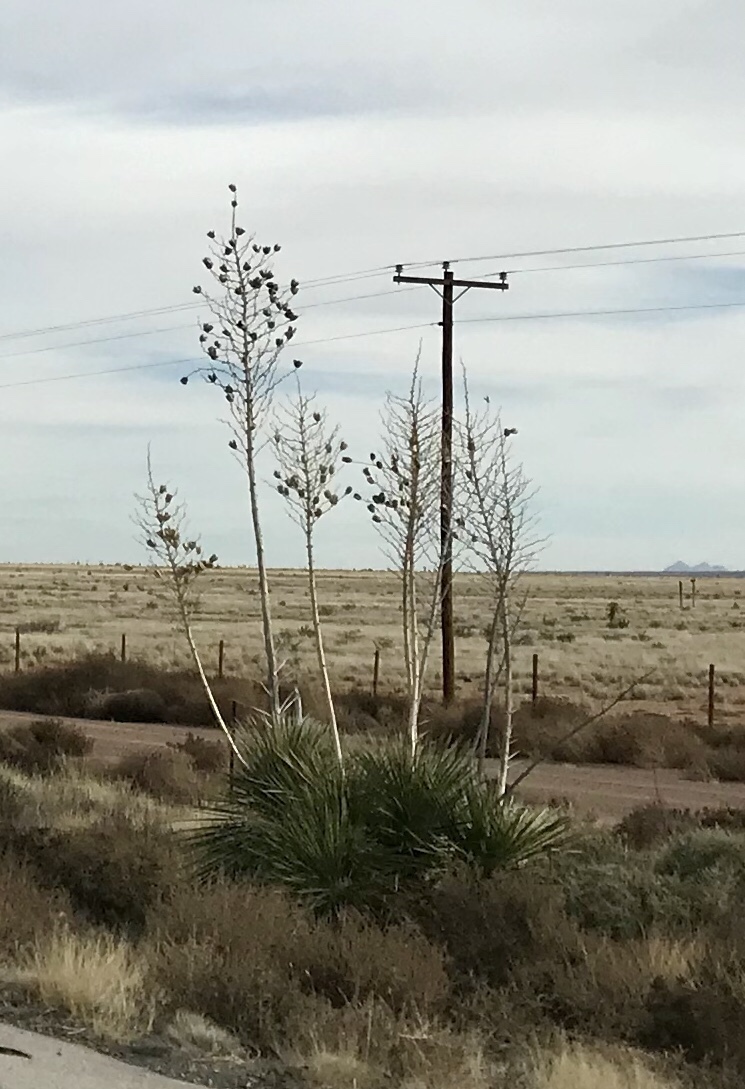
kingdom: Plantae
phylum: Tracheophyta
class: Liliopsida
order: Asparagales
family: Asparagaceae
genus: Yucca
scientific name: Yucca elata
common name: Palmella
